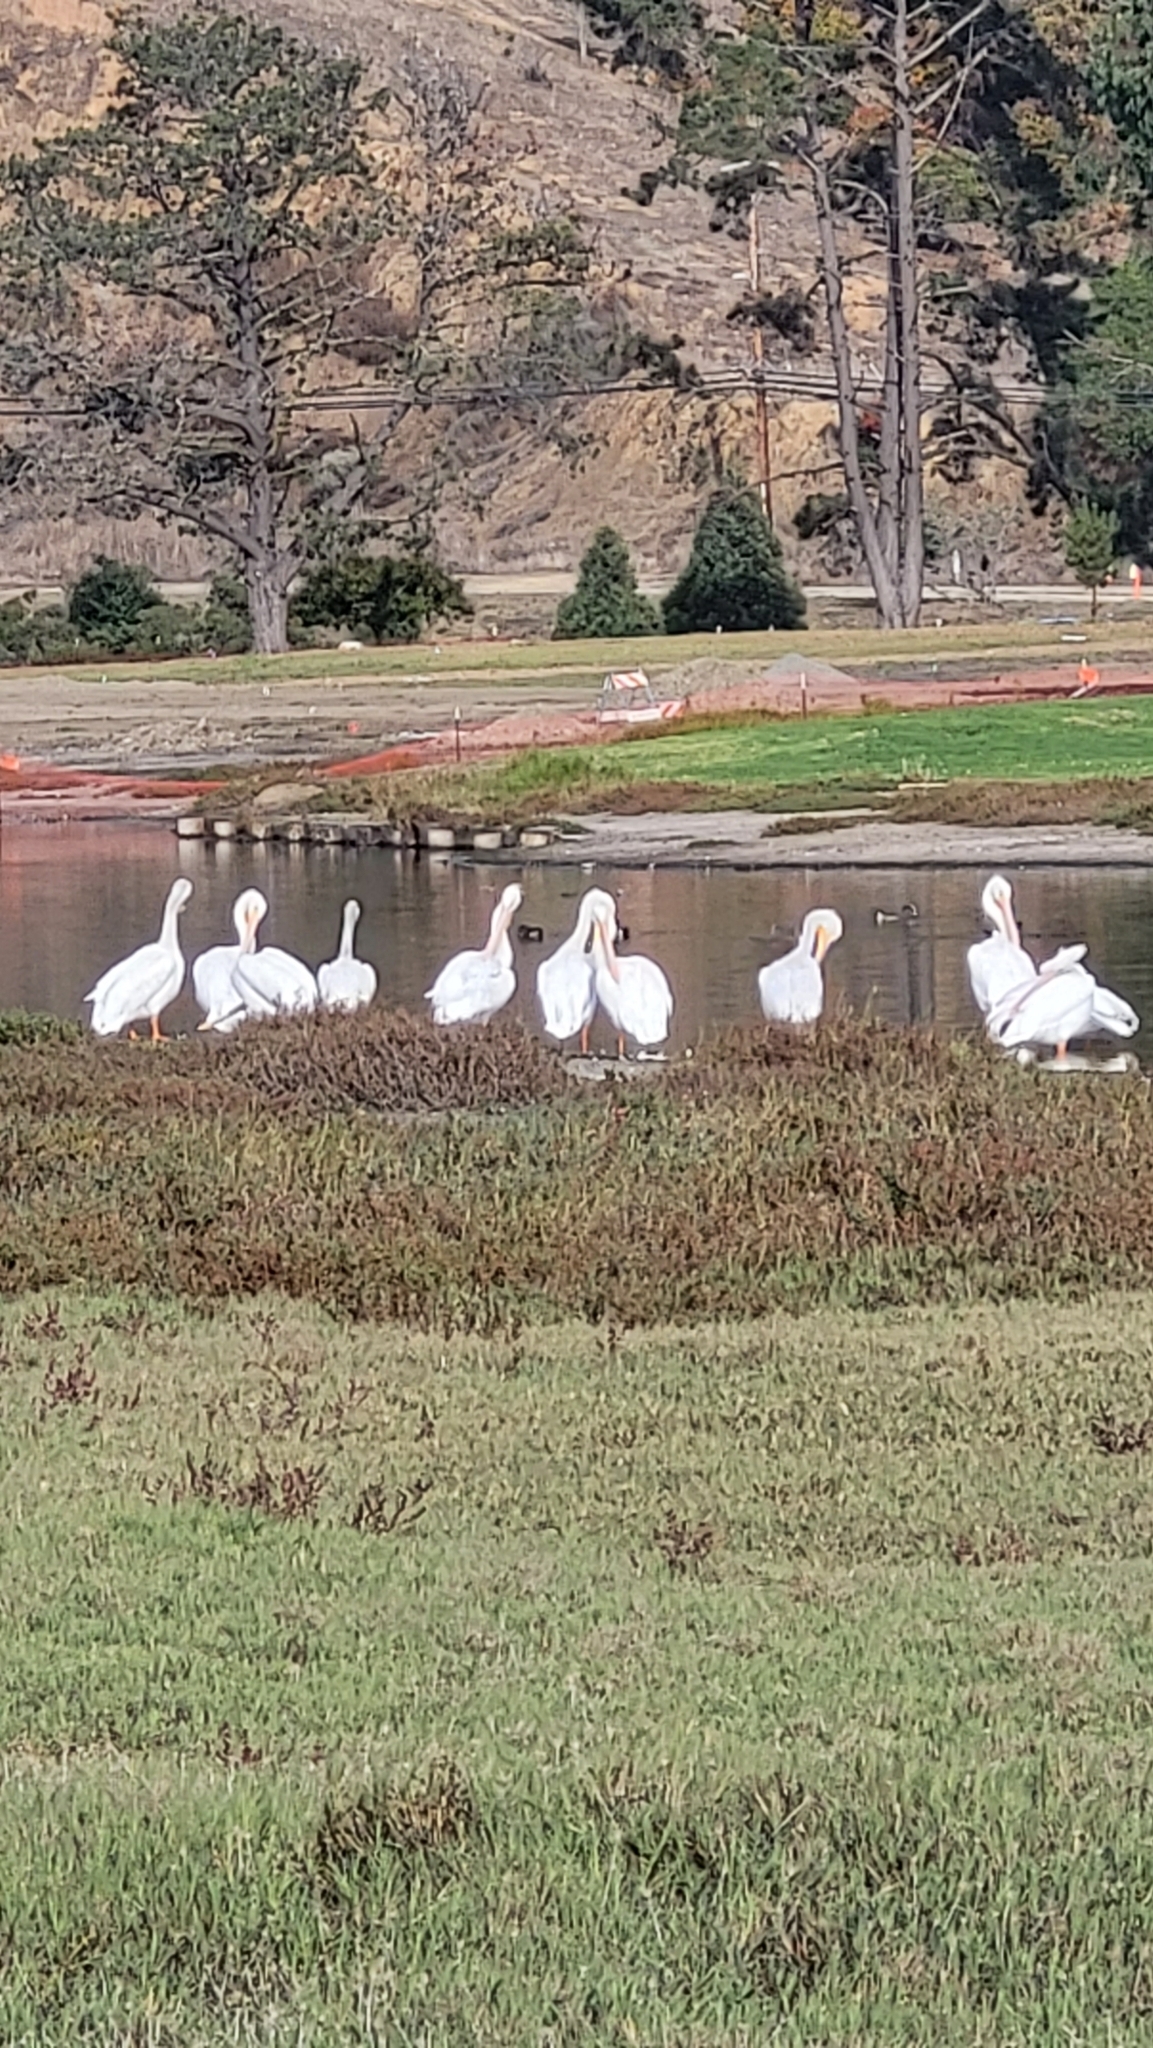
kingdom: Animalia
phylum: Chordata
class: Aves
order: Pelecaniformes
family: Pelecanidae
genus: Pelecanus
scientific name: Pelecanus erythrorhynchos
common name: American white pelican
